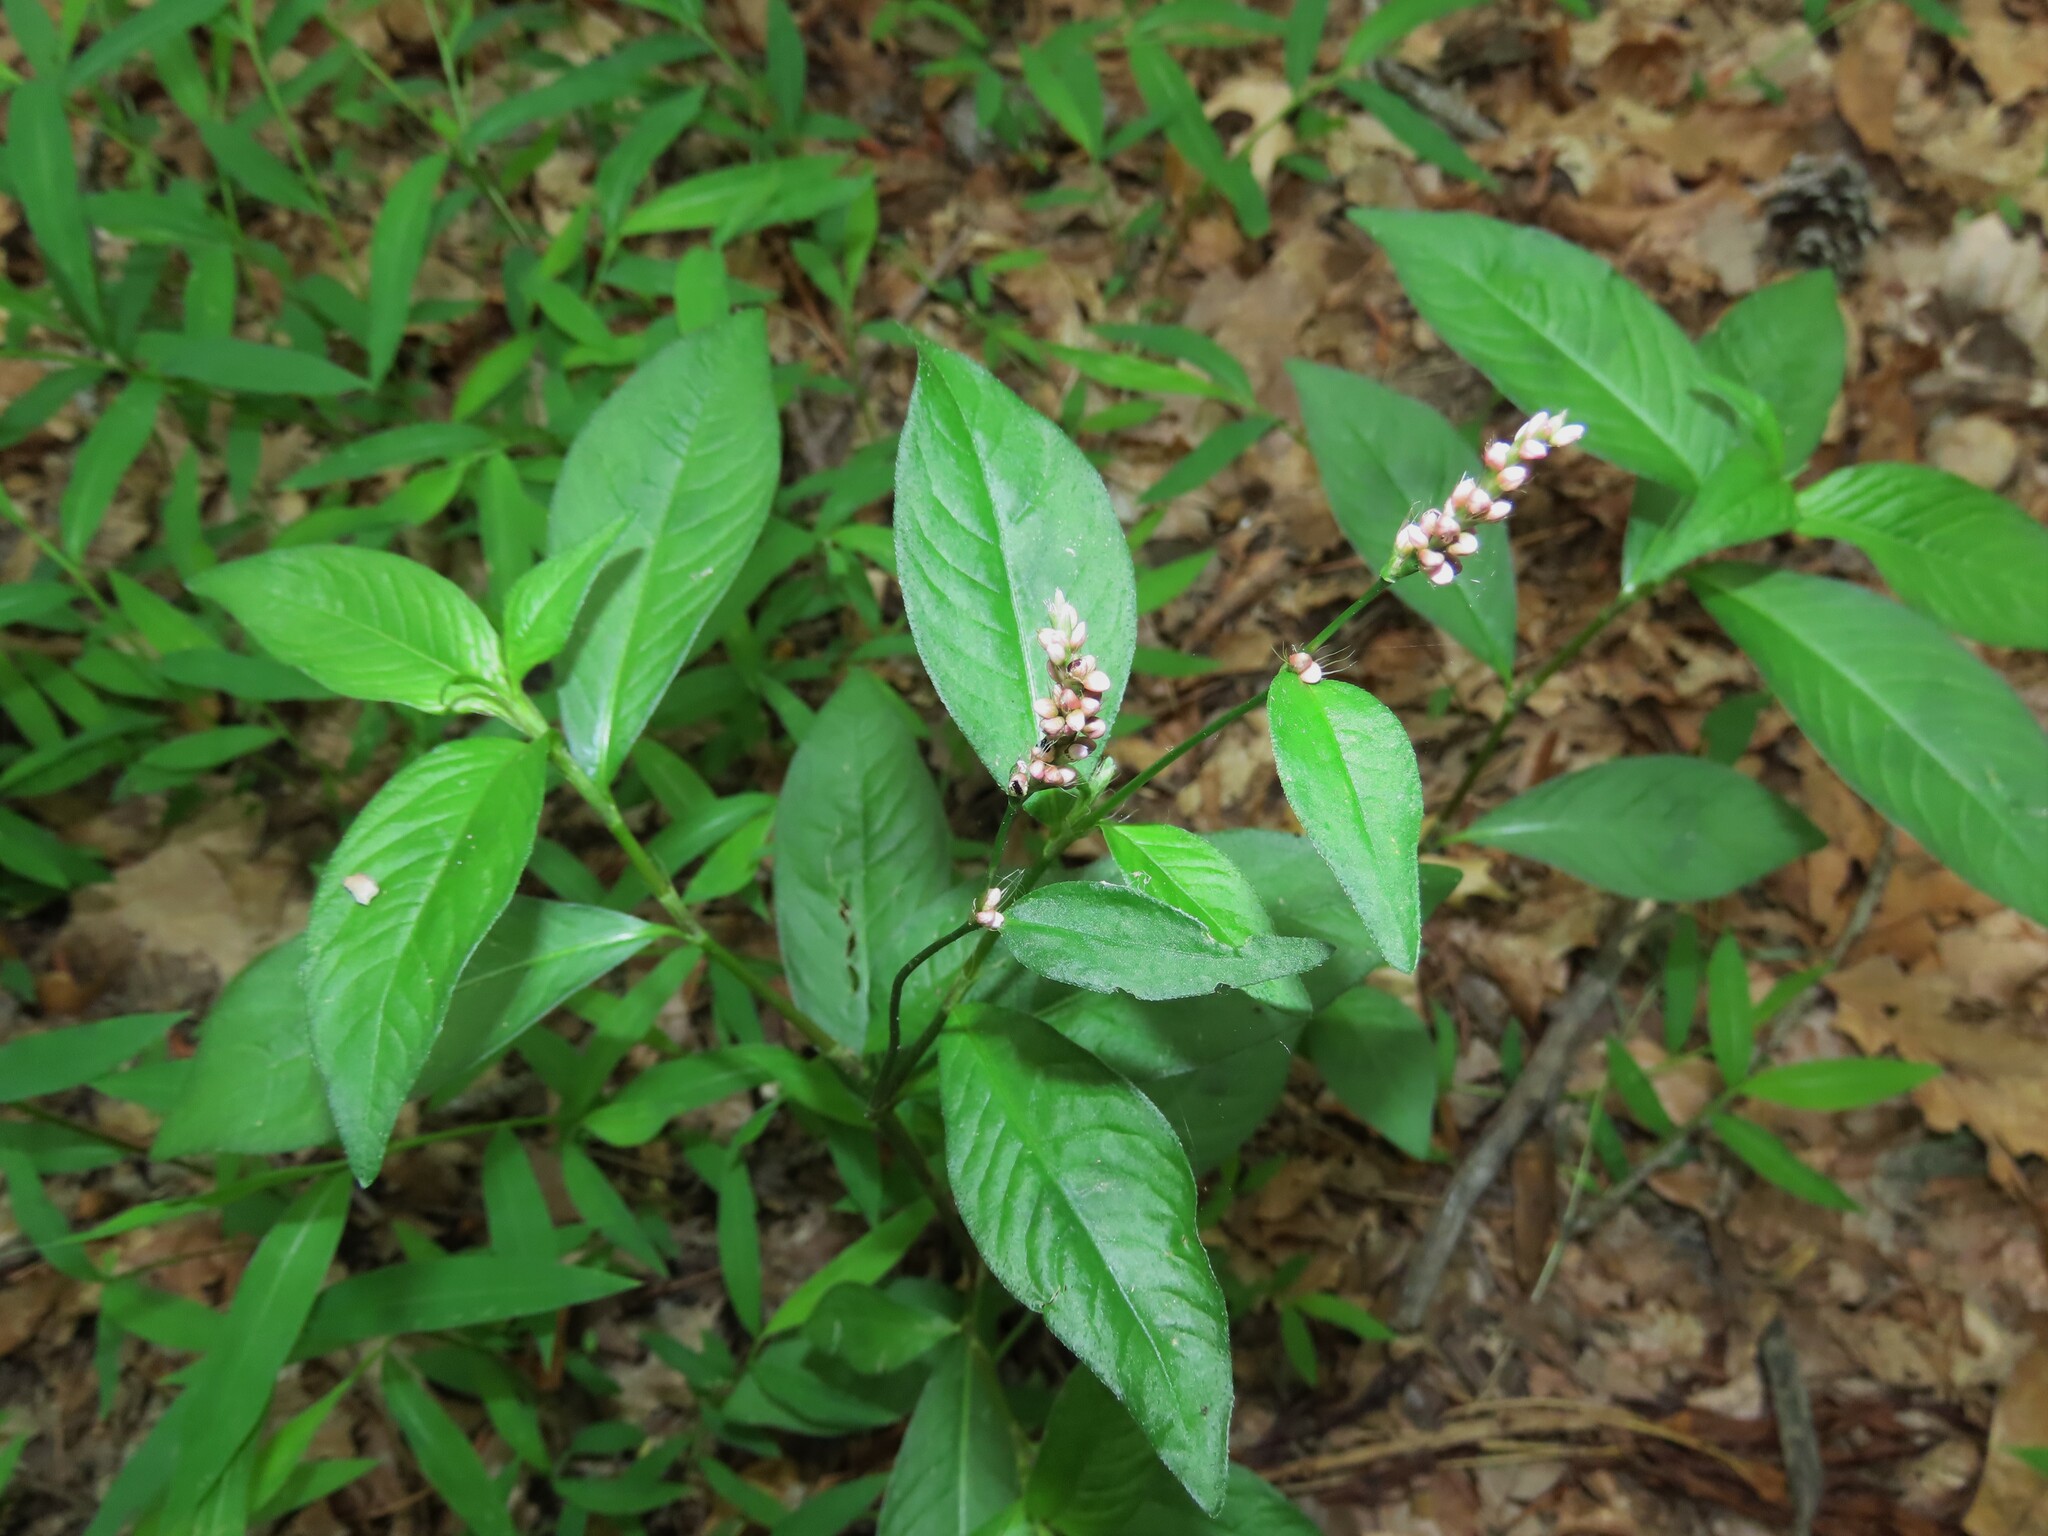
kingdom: Plantae
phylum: Tracheophyta
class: Magnoliopsida
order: Caryophyllales
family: Polygonaceae
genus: Persicaria
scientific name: Persicaria longiseta
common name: Bristly lady's-thumb
